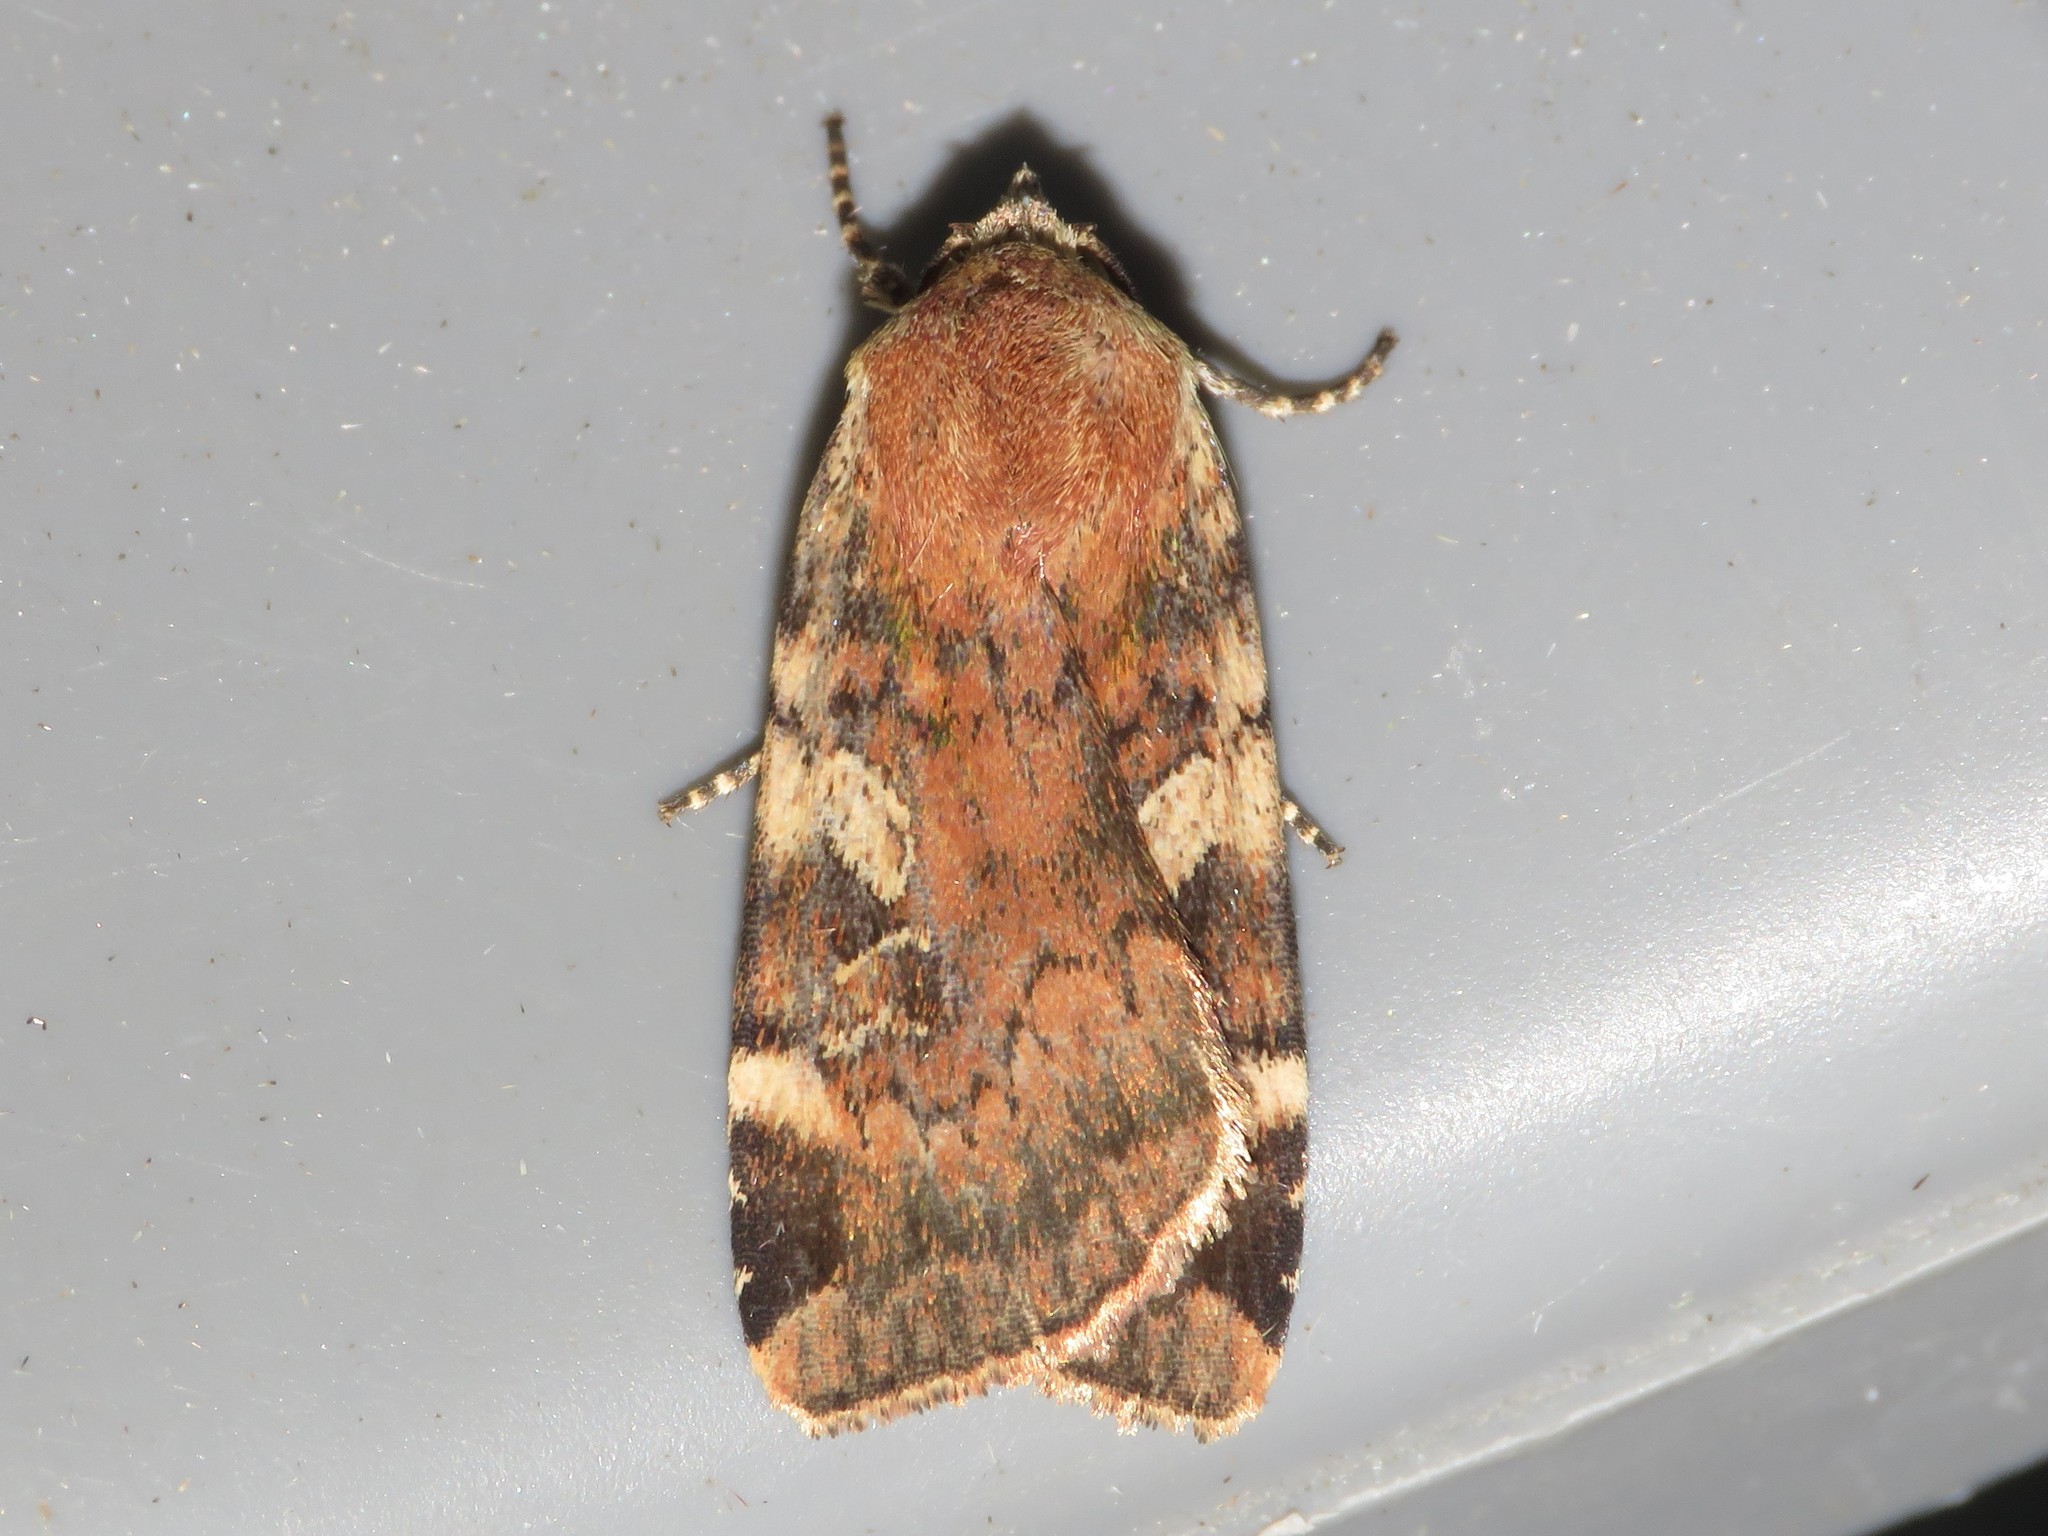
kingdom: Animalia
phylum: Arthropoda
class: Insecta
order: Lepidoptera
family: Noctuidae
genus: Cryptocala
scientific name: Cryptocala acadiensis
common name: Catocaline dart
